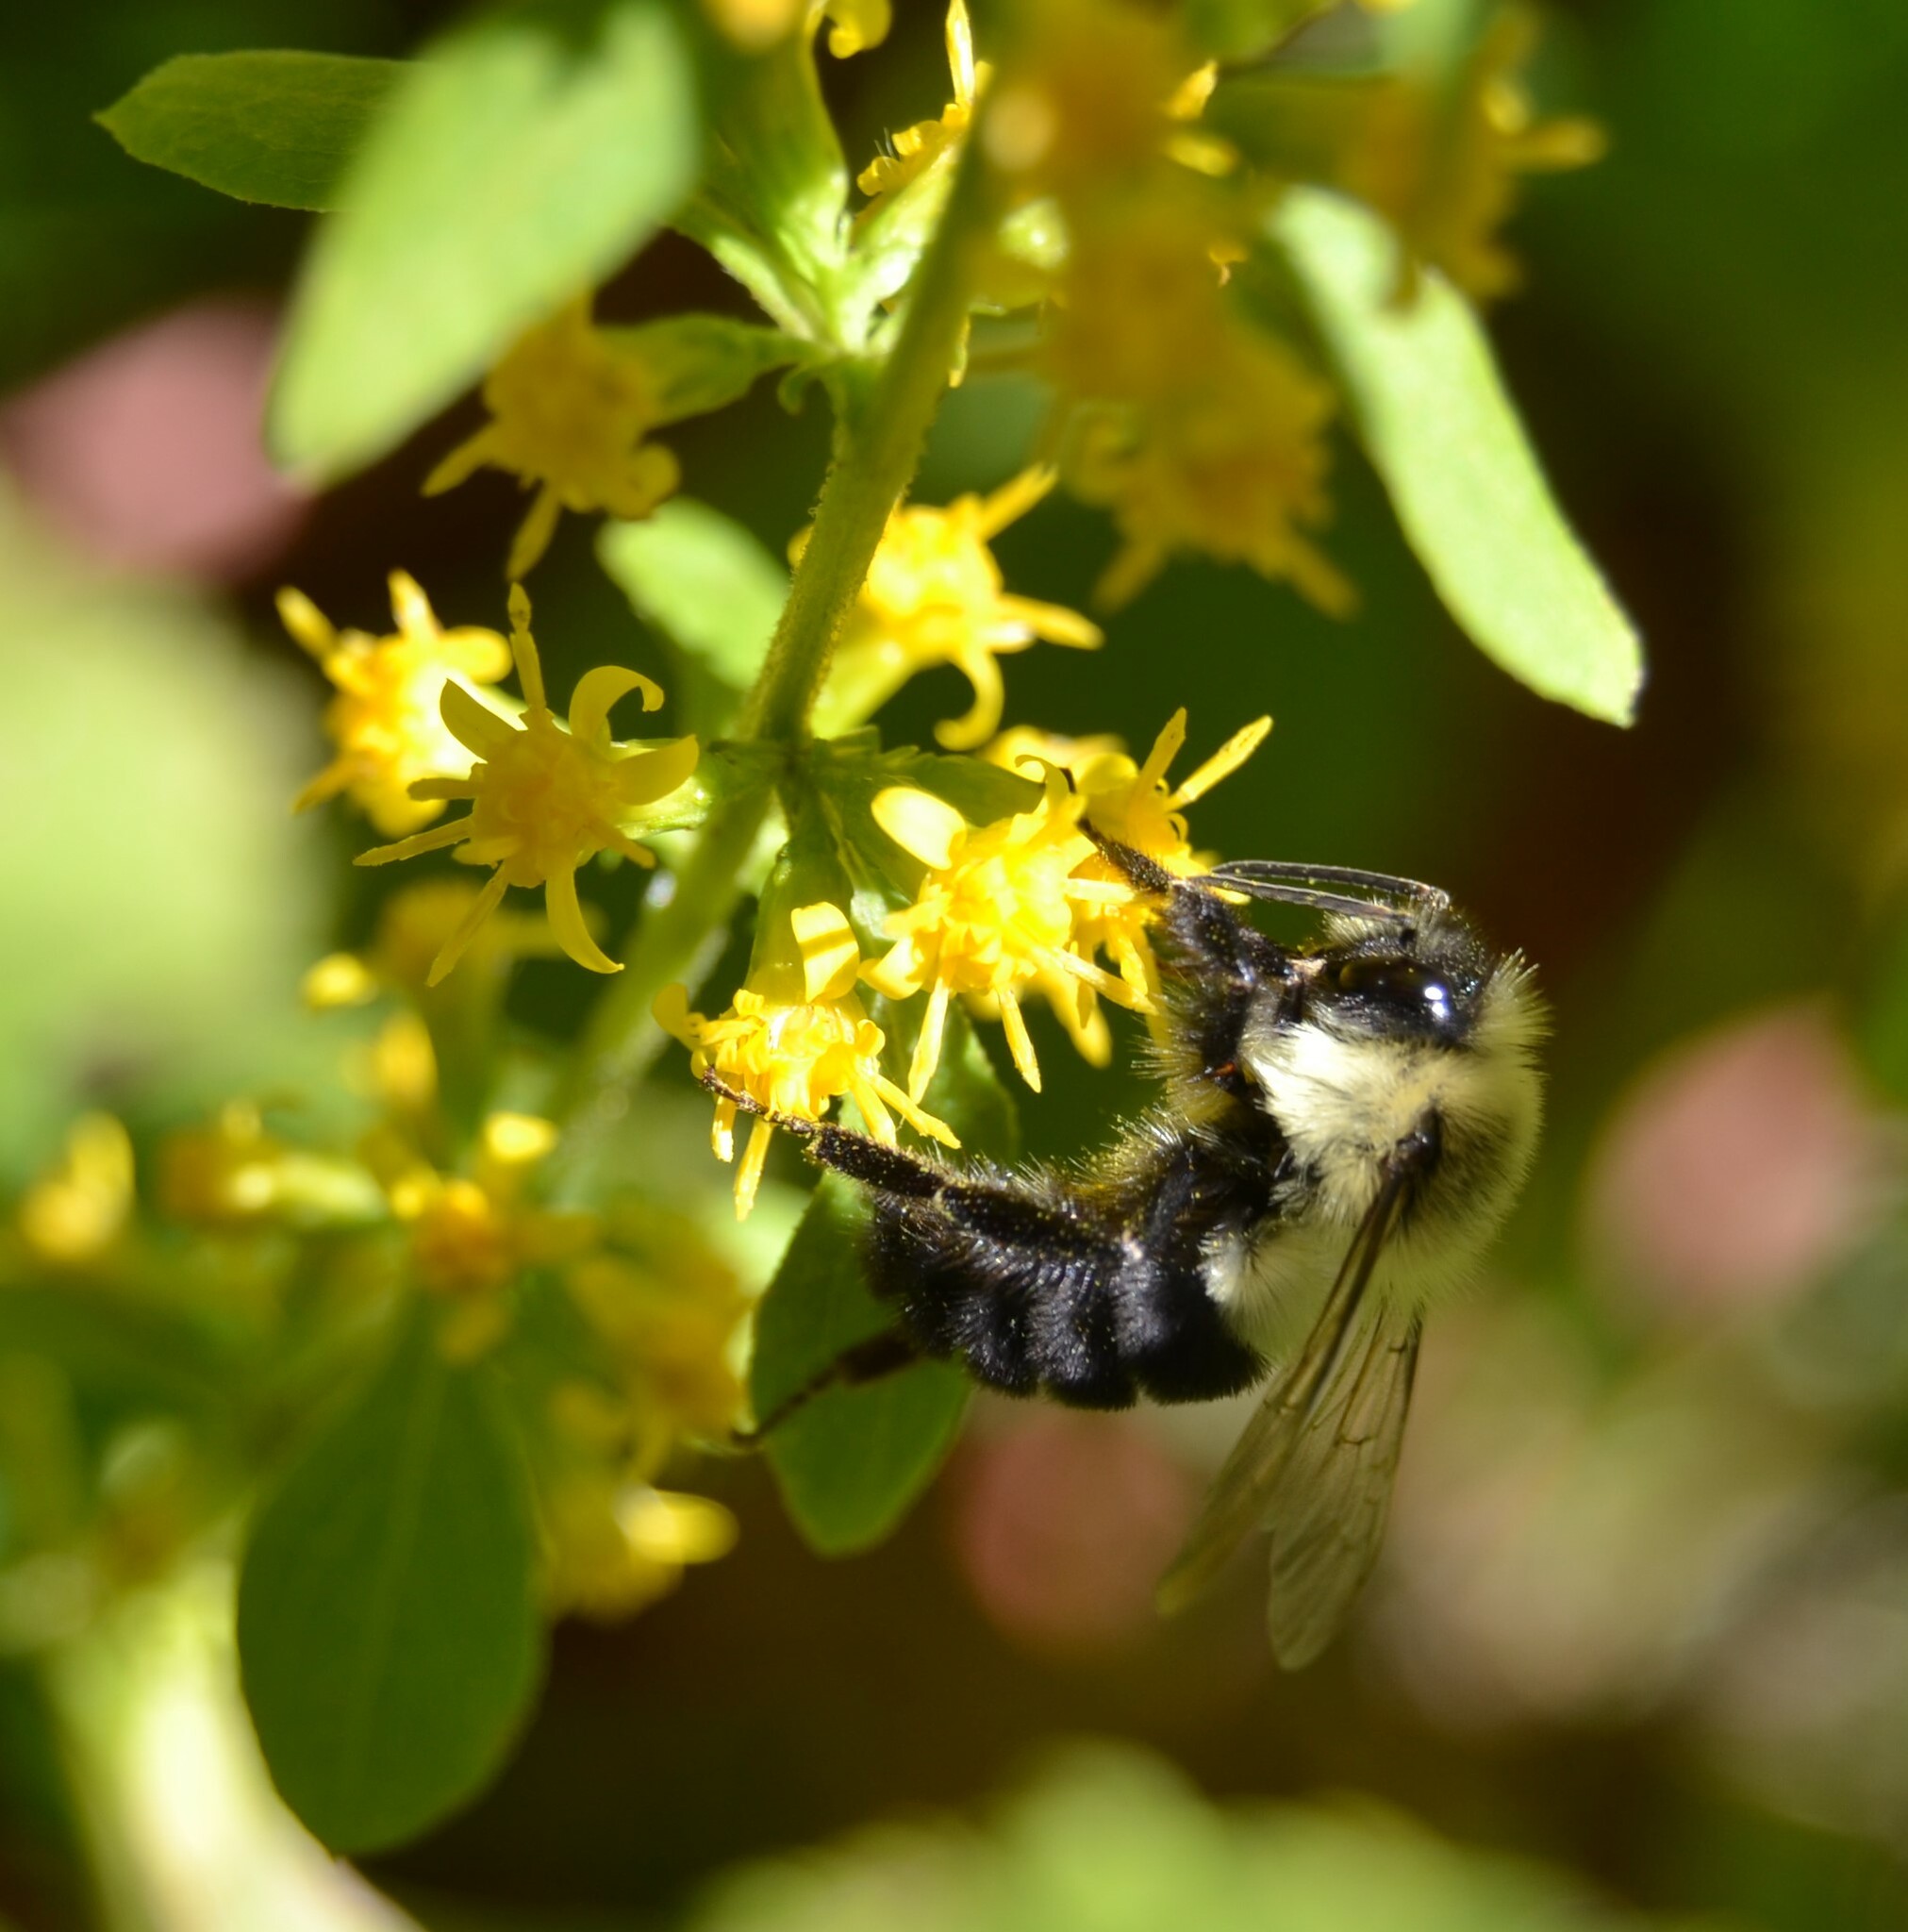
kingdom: Animalia
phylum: Arthropoda
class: Insecta
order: Hymenoptera
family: Apidae
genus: Bombus
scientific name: Bombus impatiens
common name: Common eastern bumble bee
